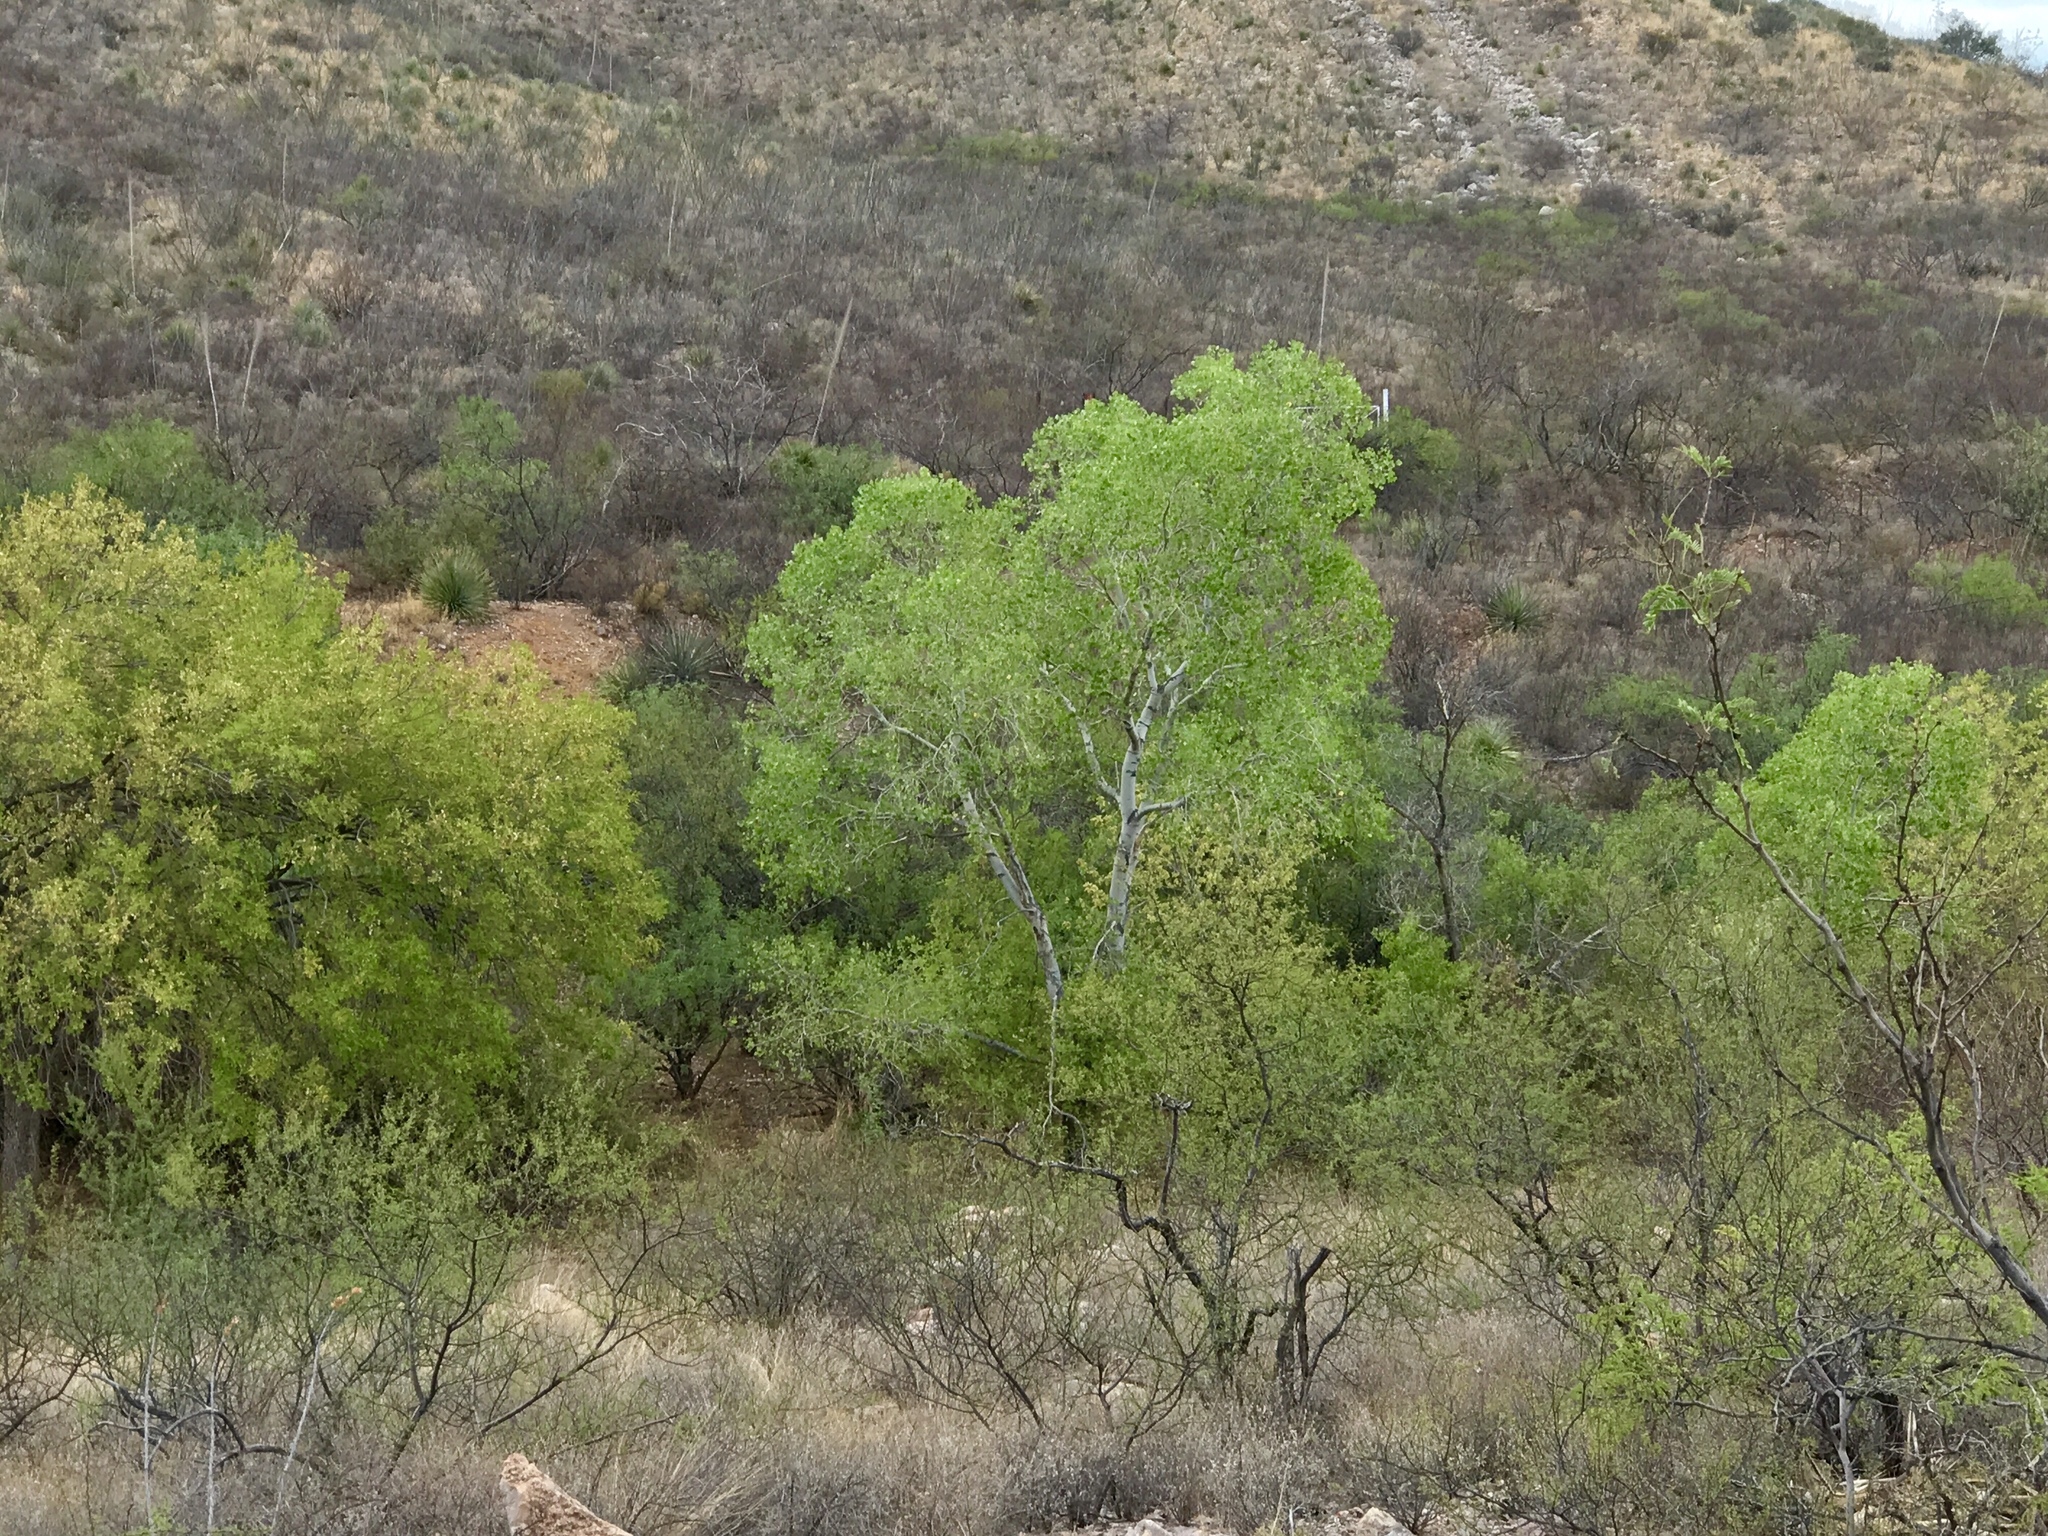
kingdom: Plantae
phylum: Tracheophyta
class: Magnoliopsida
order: Malpighiales
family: Salicaceae
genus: Populus
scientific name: Populus fremontii
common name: Fremont's cottonwood
